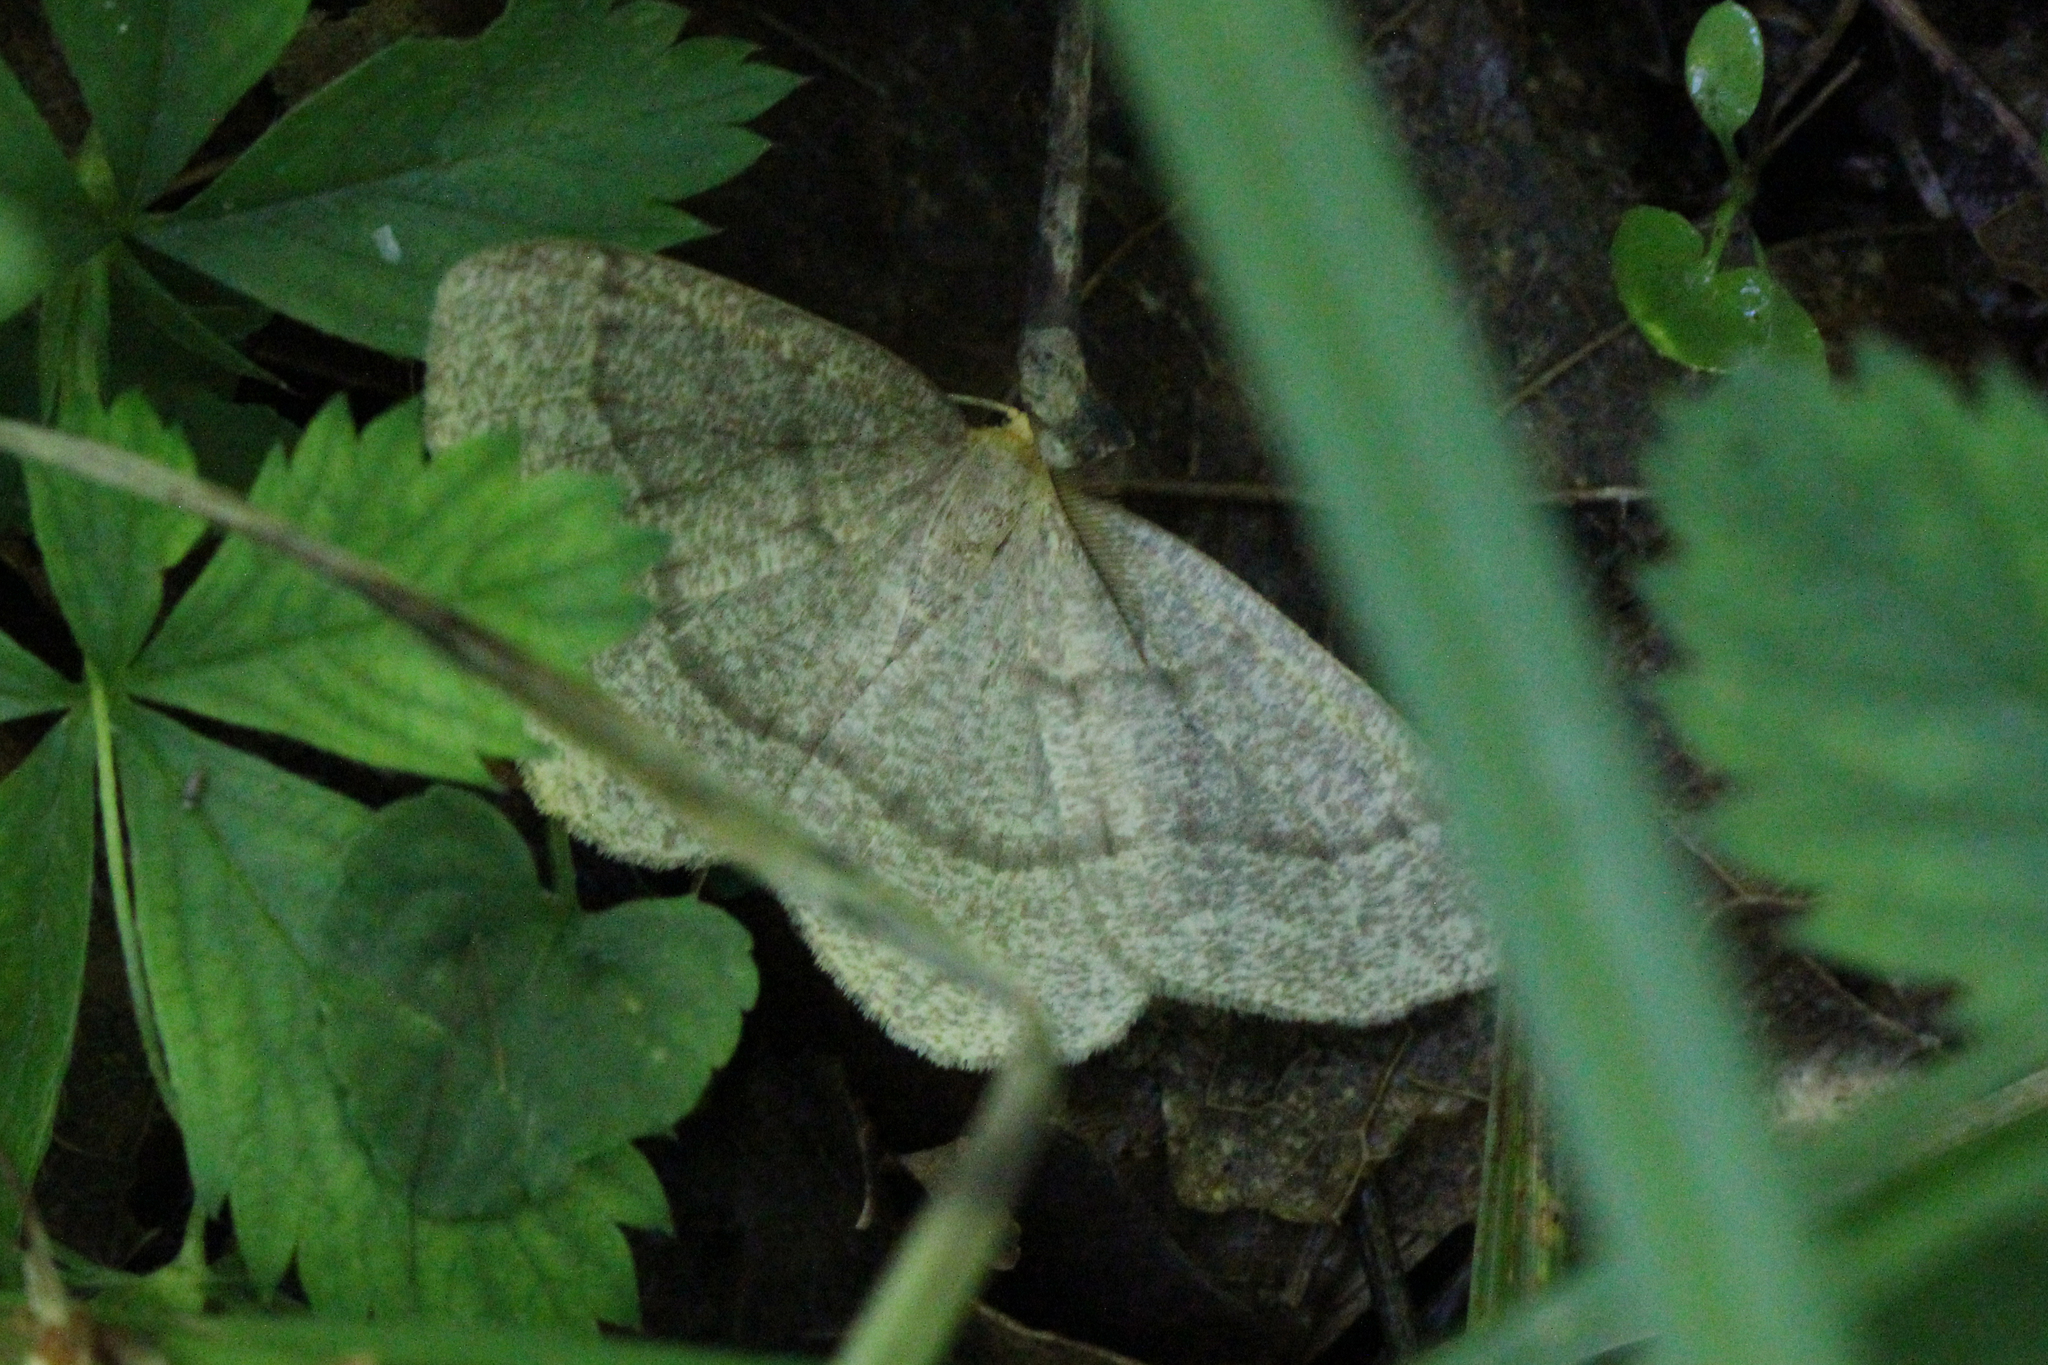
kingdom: Animalia
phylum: Arthropoda
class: Insecta
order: Lepidoptera
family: Geometridae
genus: Lambdina
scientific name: Lambdina fervidaria
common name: Curve-lined looper moth
